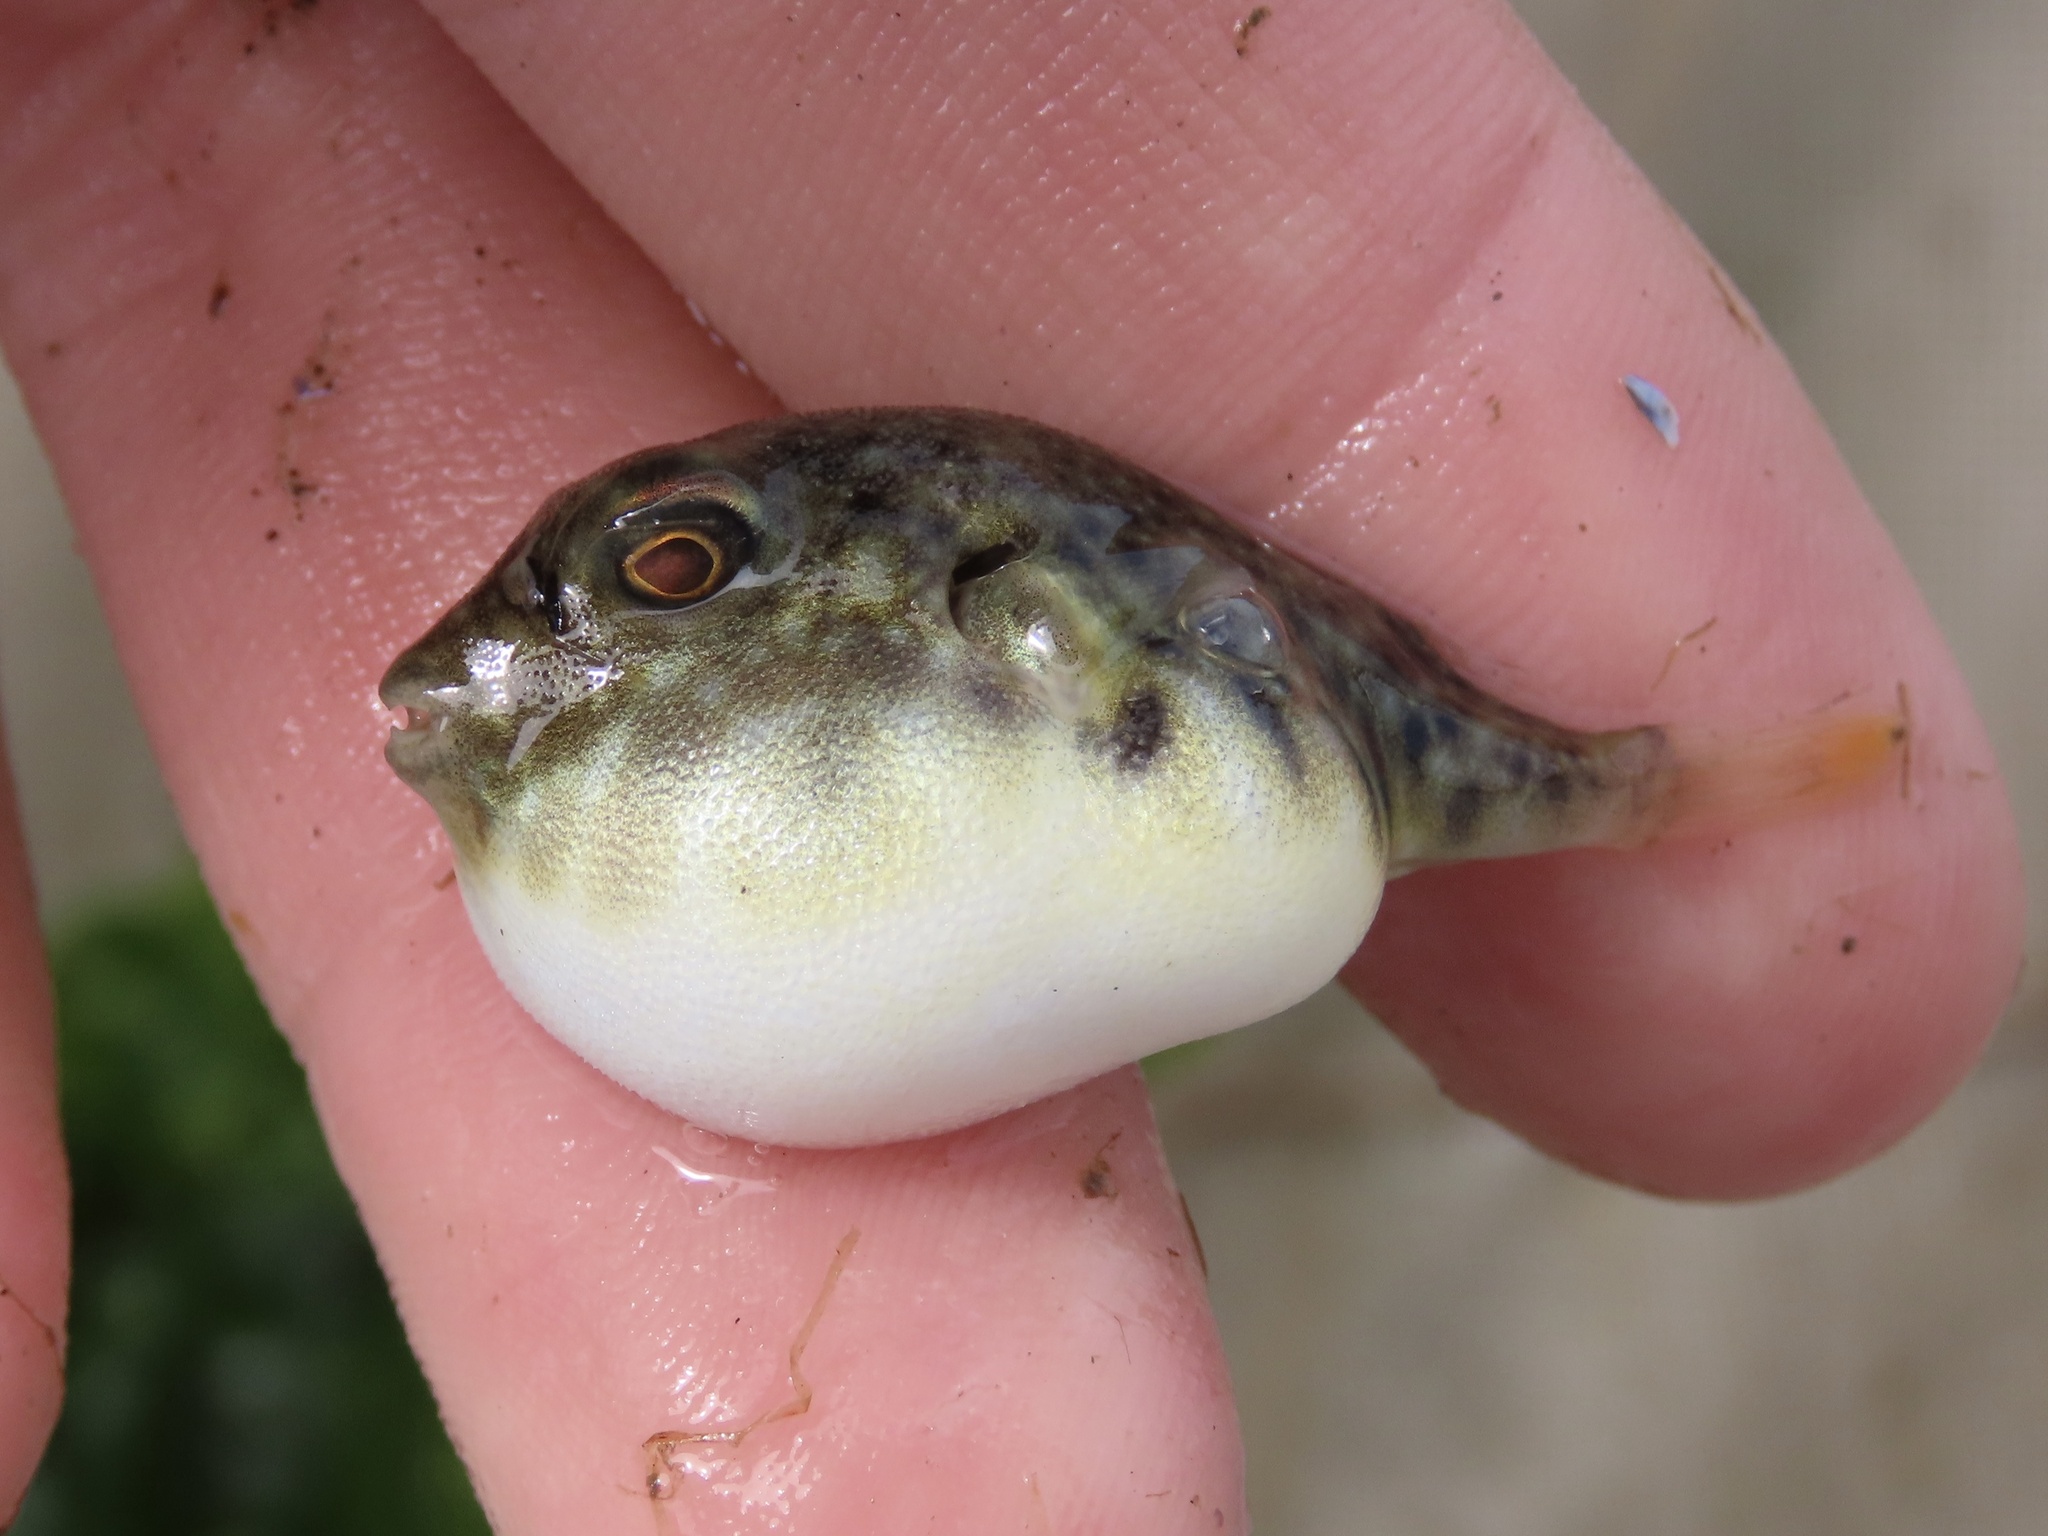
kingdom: Animalia
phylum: Chordata
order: Tetraodontiformes
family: Tetraodontidae
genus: Sphoeroides
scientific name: Sphoeroides maculatus
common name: Northern puffer
